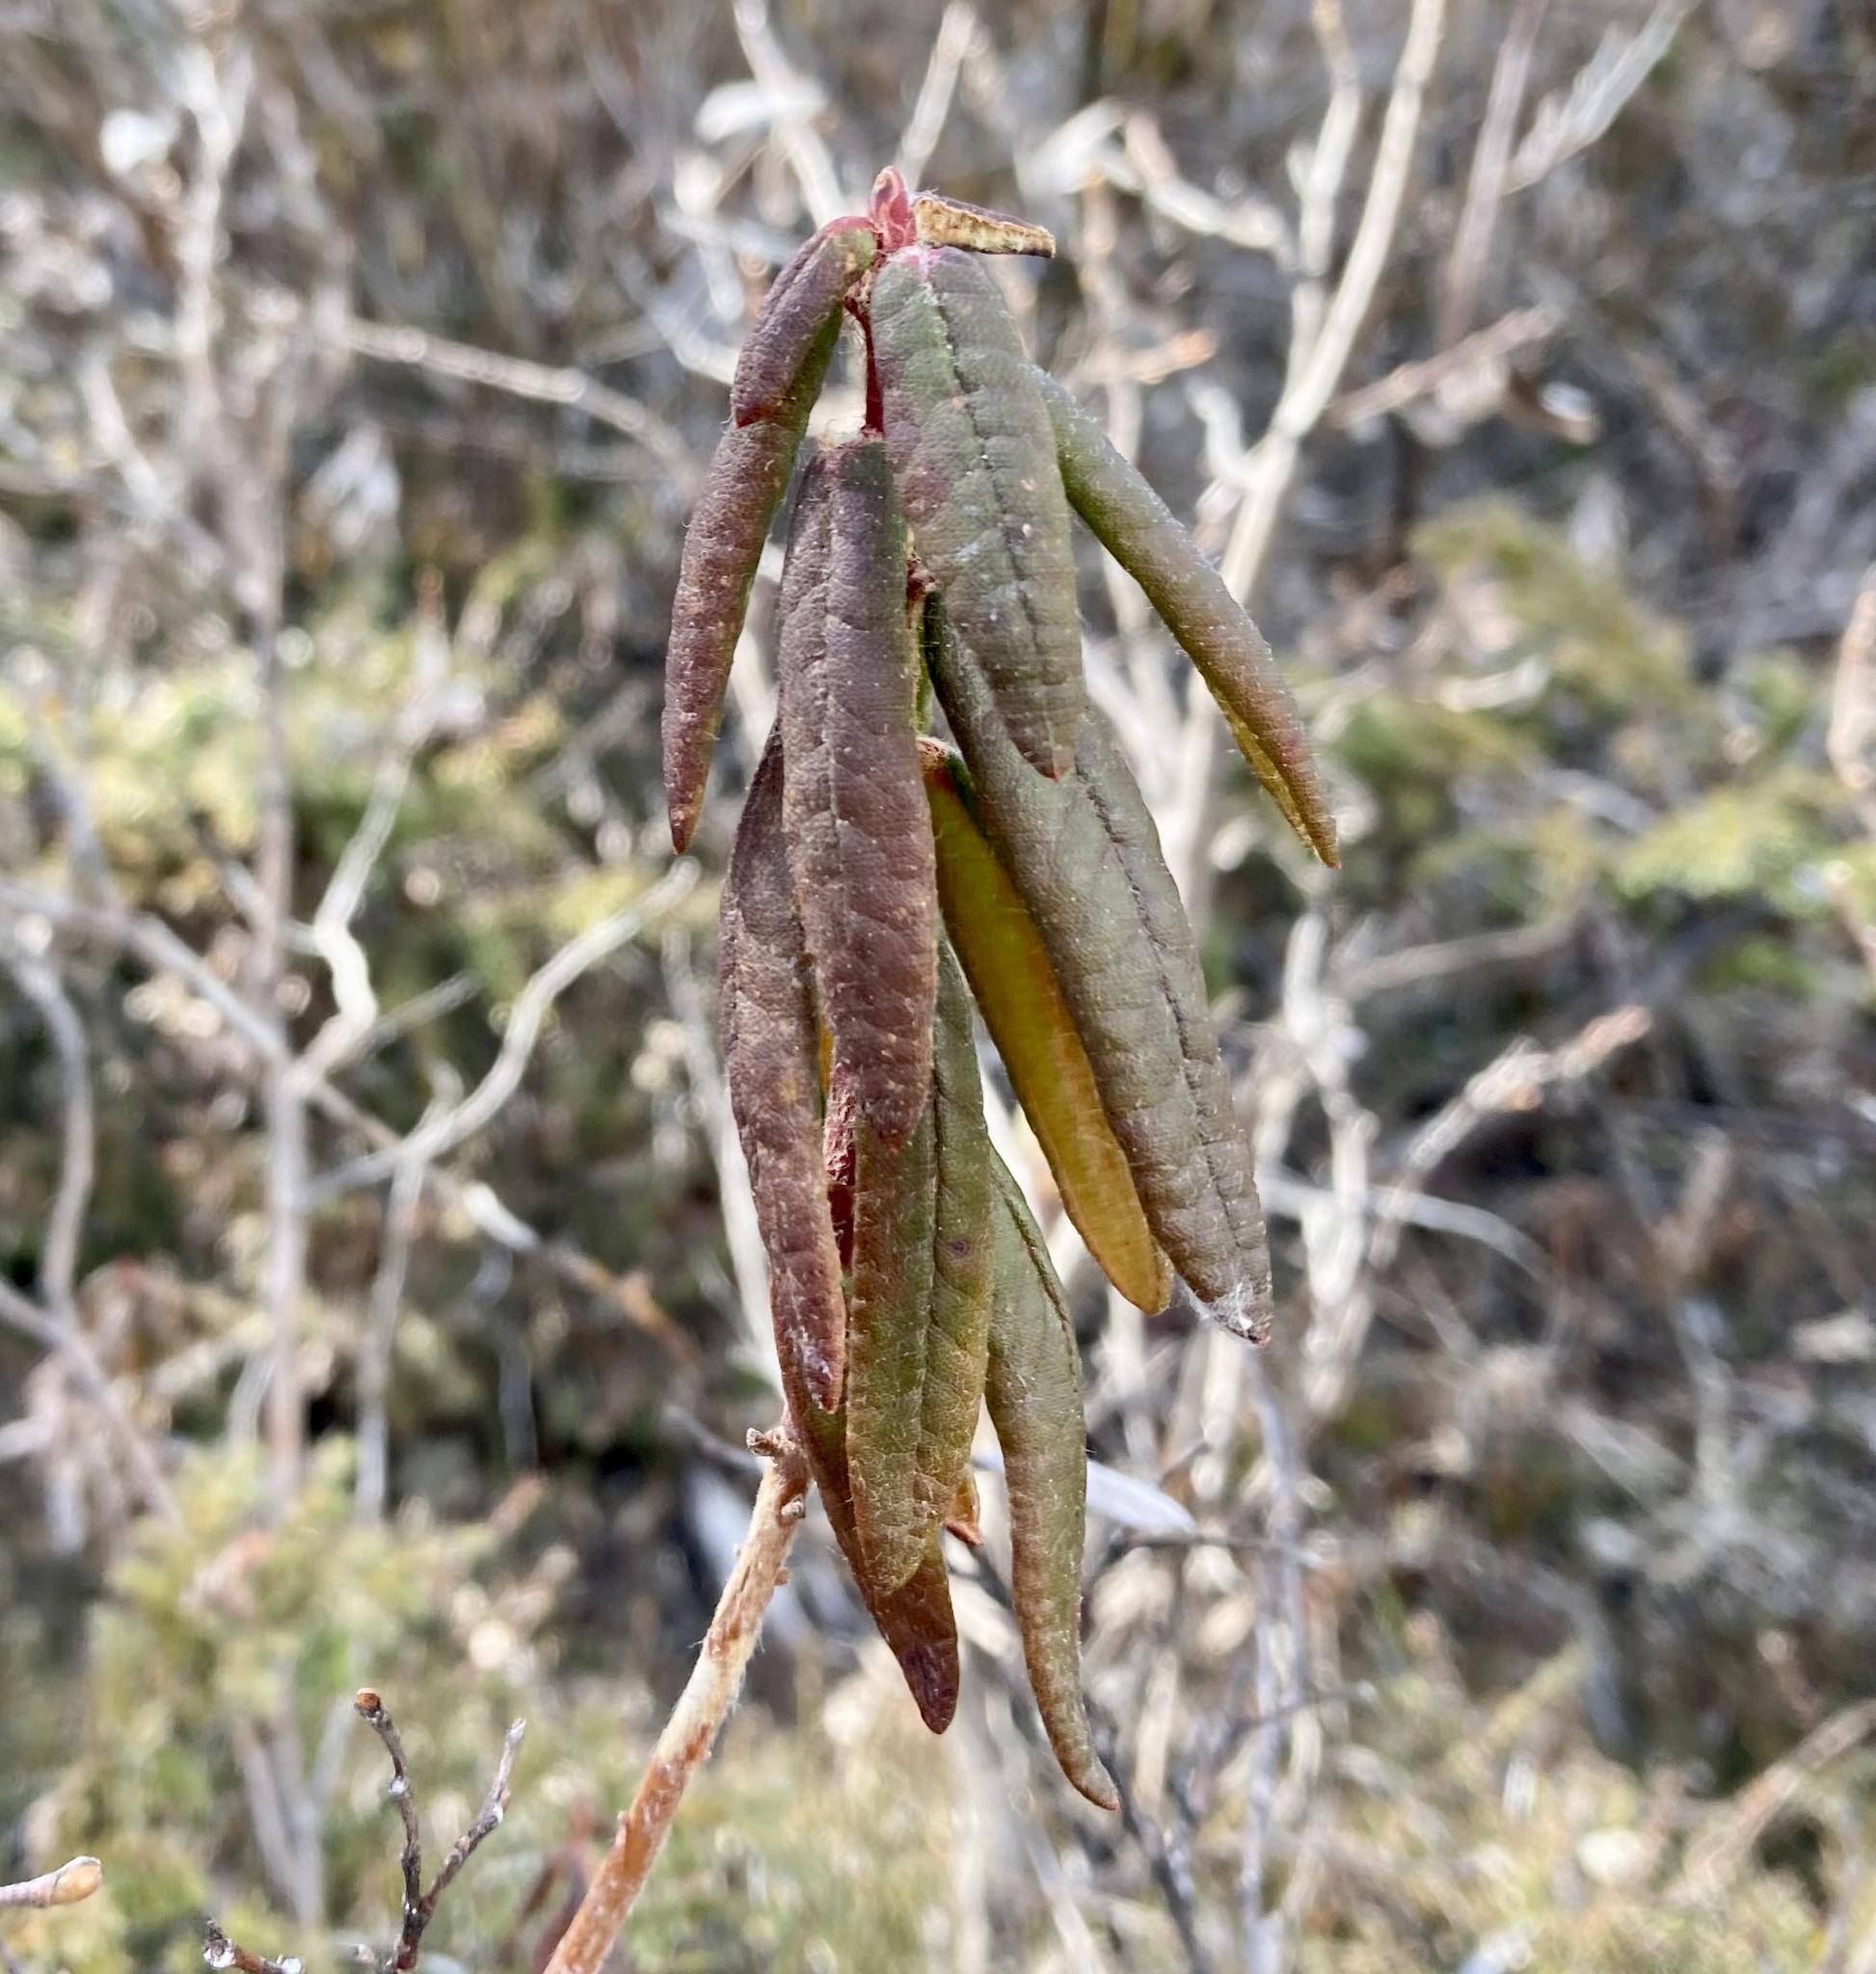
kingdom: Plantae
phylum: Tracheophyta
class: Magnoliopsida
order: Ericales
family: Ericaceae
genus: Rhododendron
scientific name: Rhododendron groenlandicum
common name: Bog labrador tea
